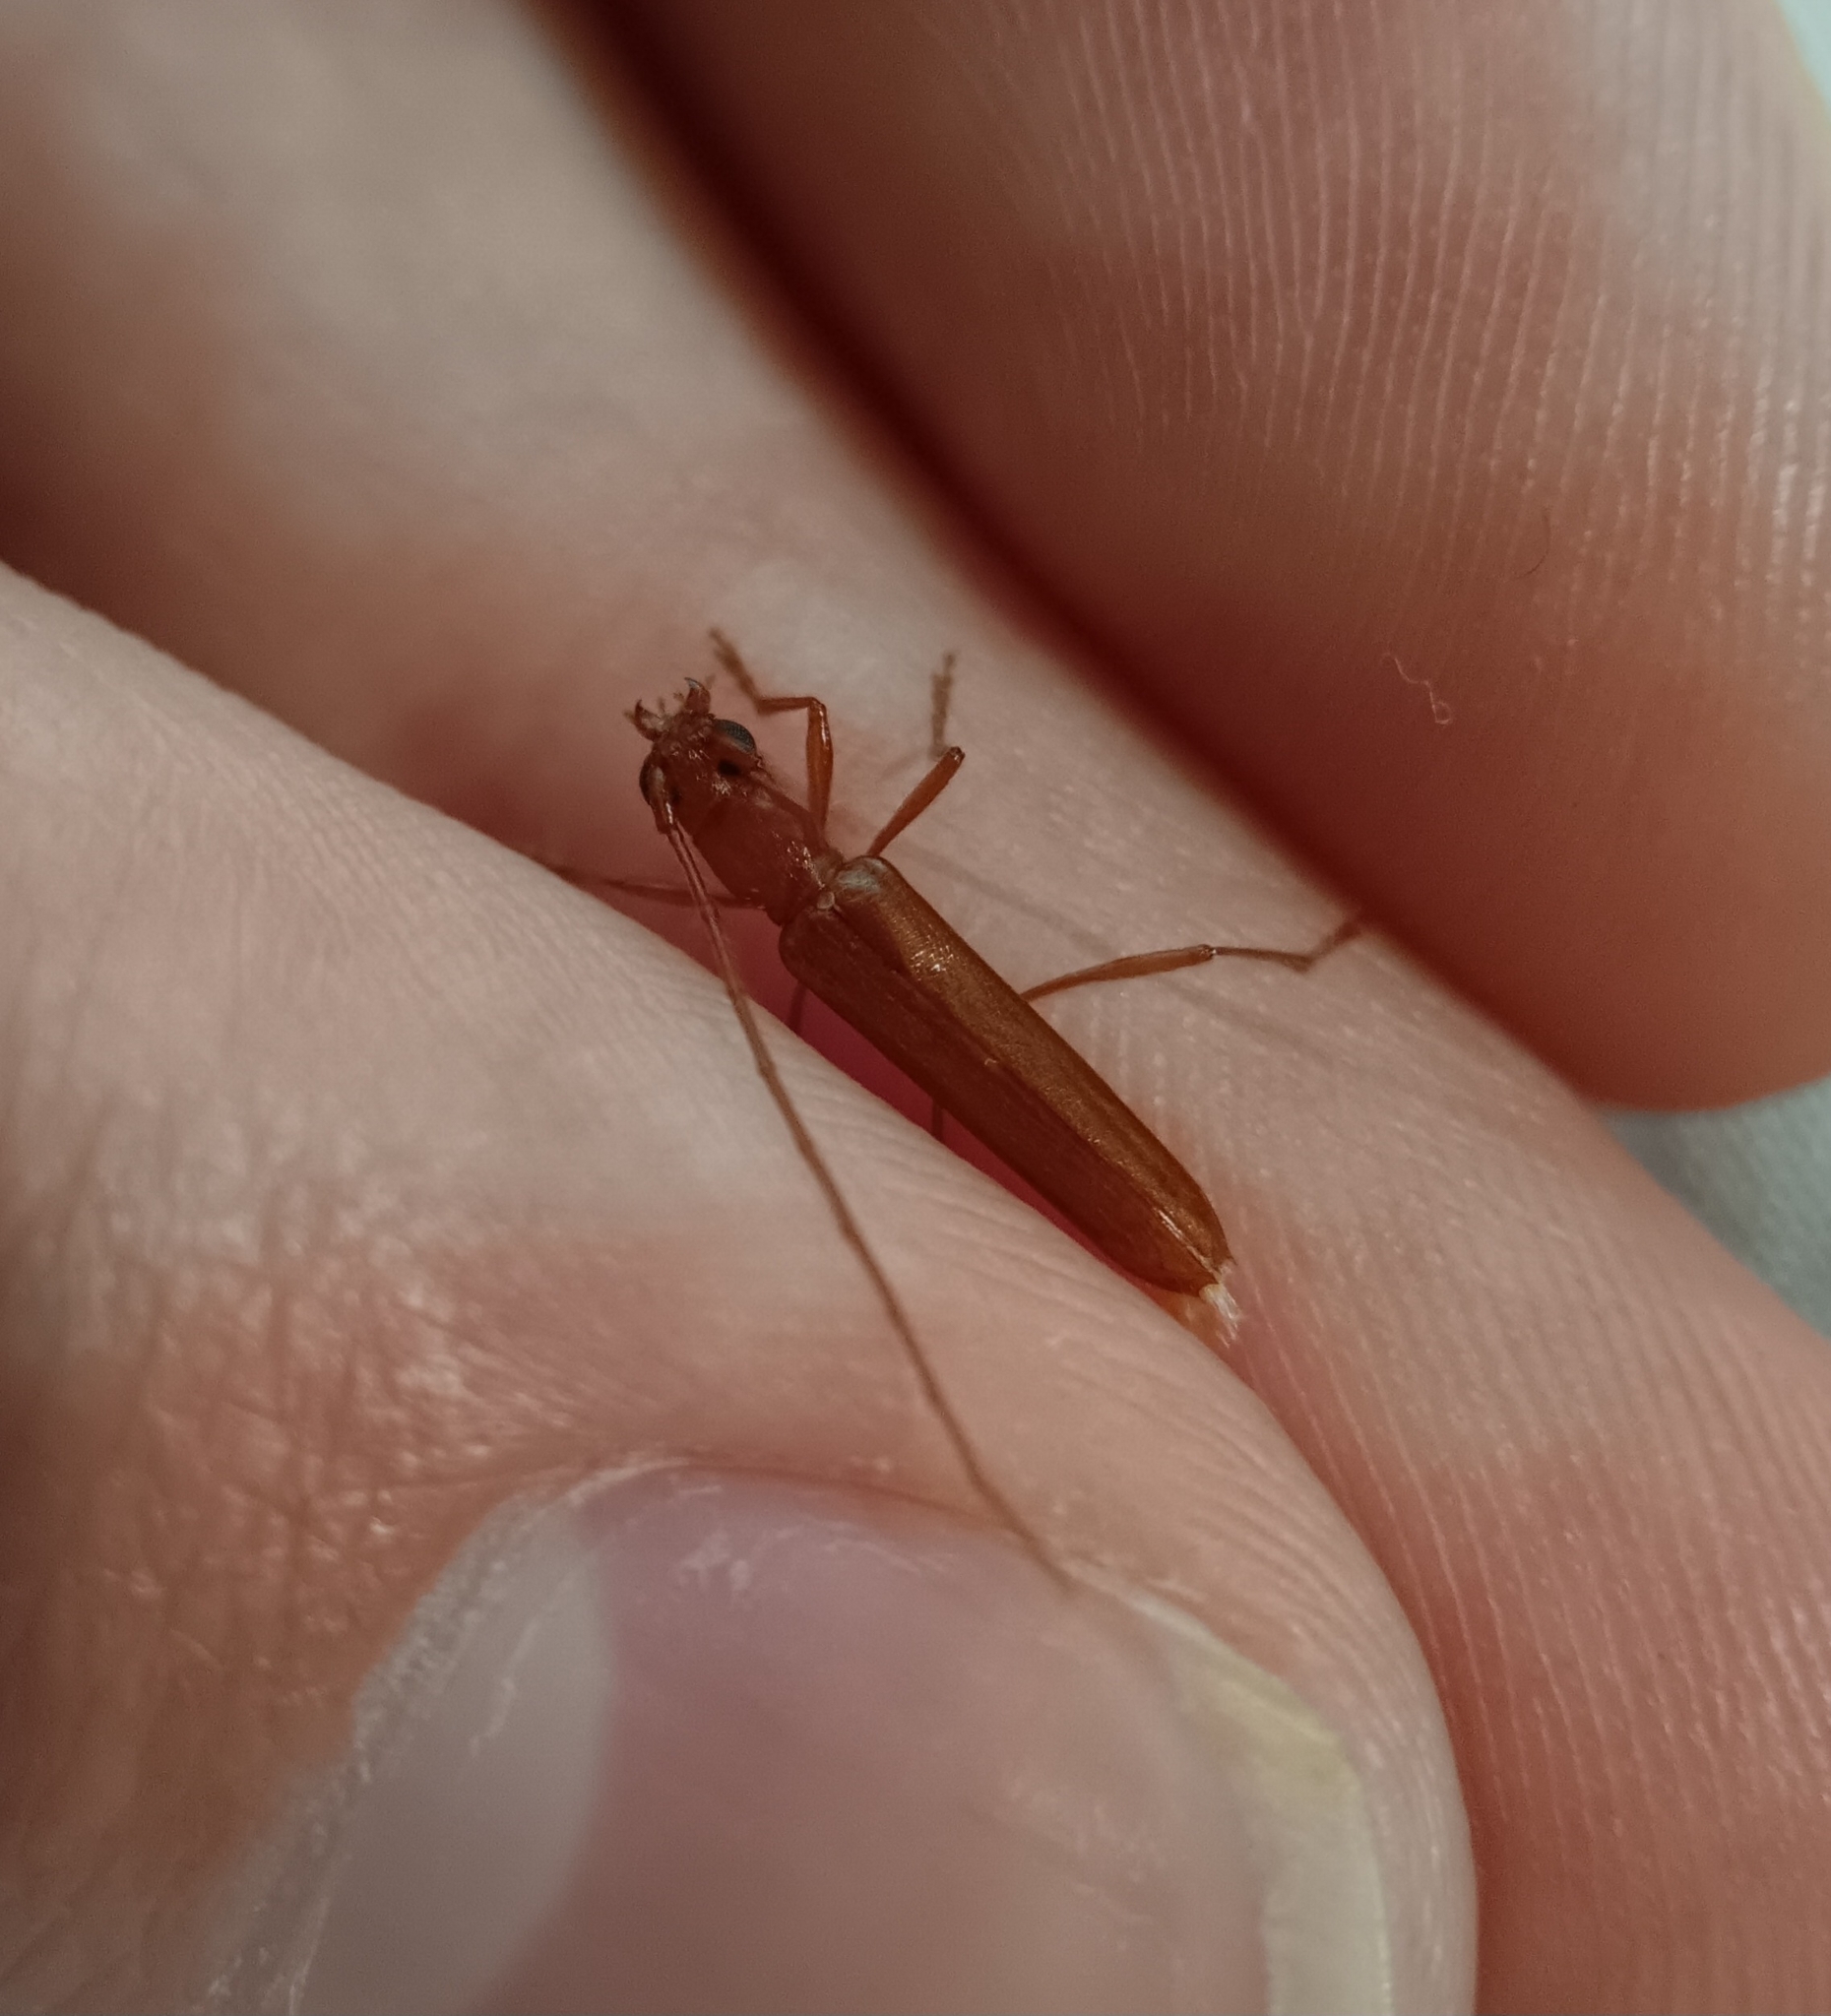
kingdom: Animalia
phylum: Arthropoda
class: Insecta
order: Coleoptera
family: Cerambycidae
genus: Psyrassa
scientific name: Psyrassa unicolor
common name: Branch pruner
